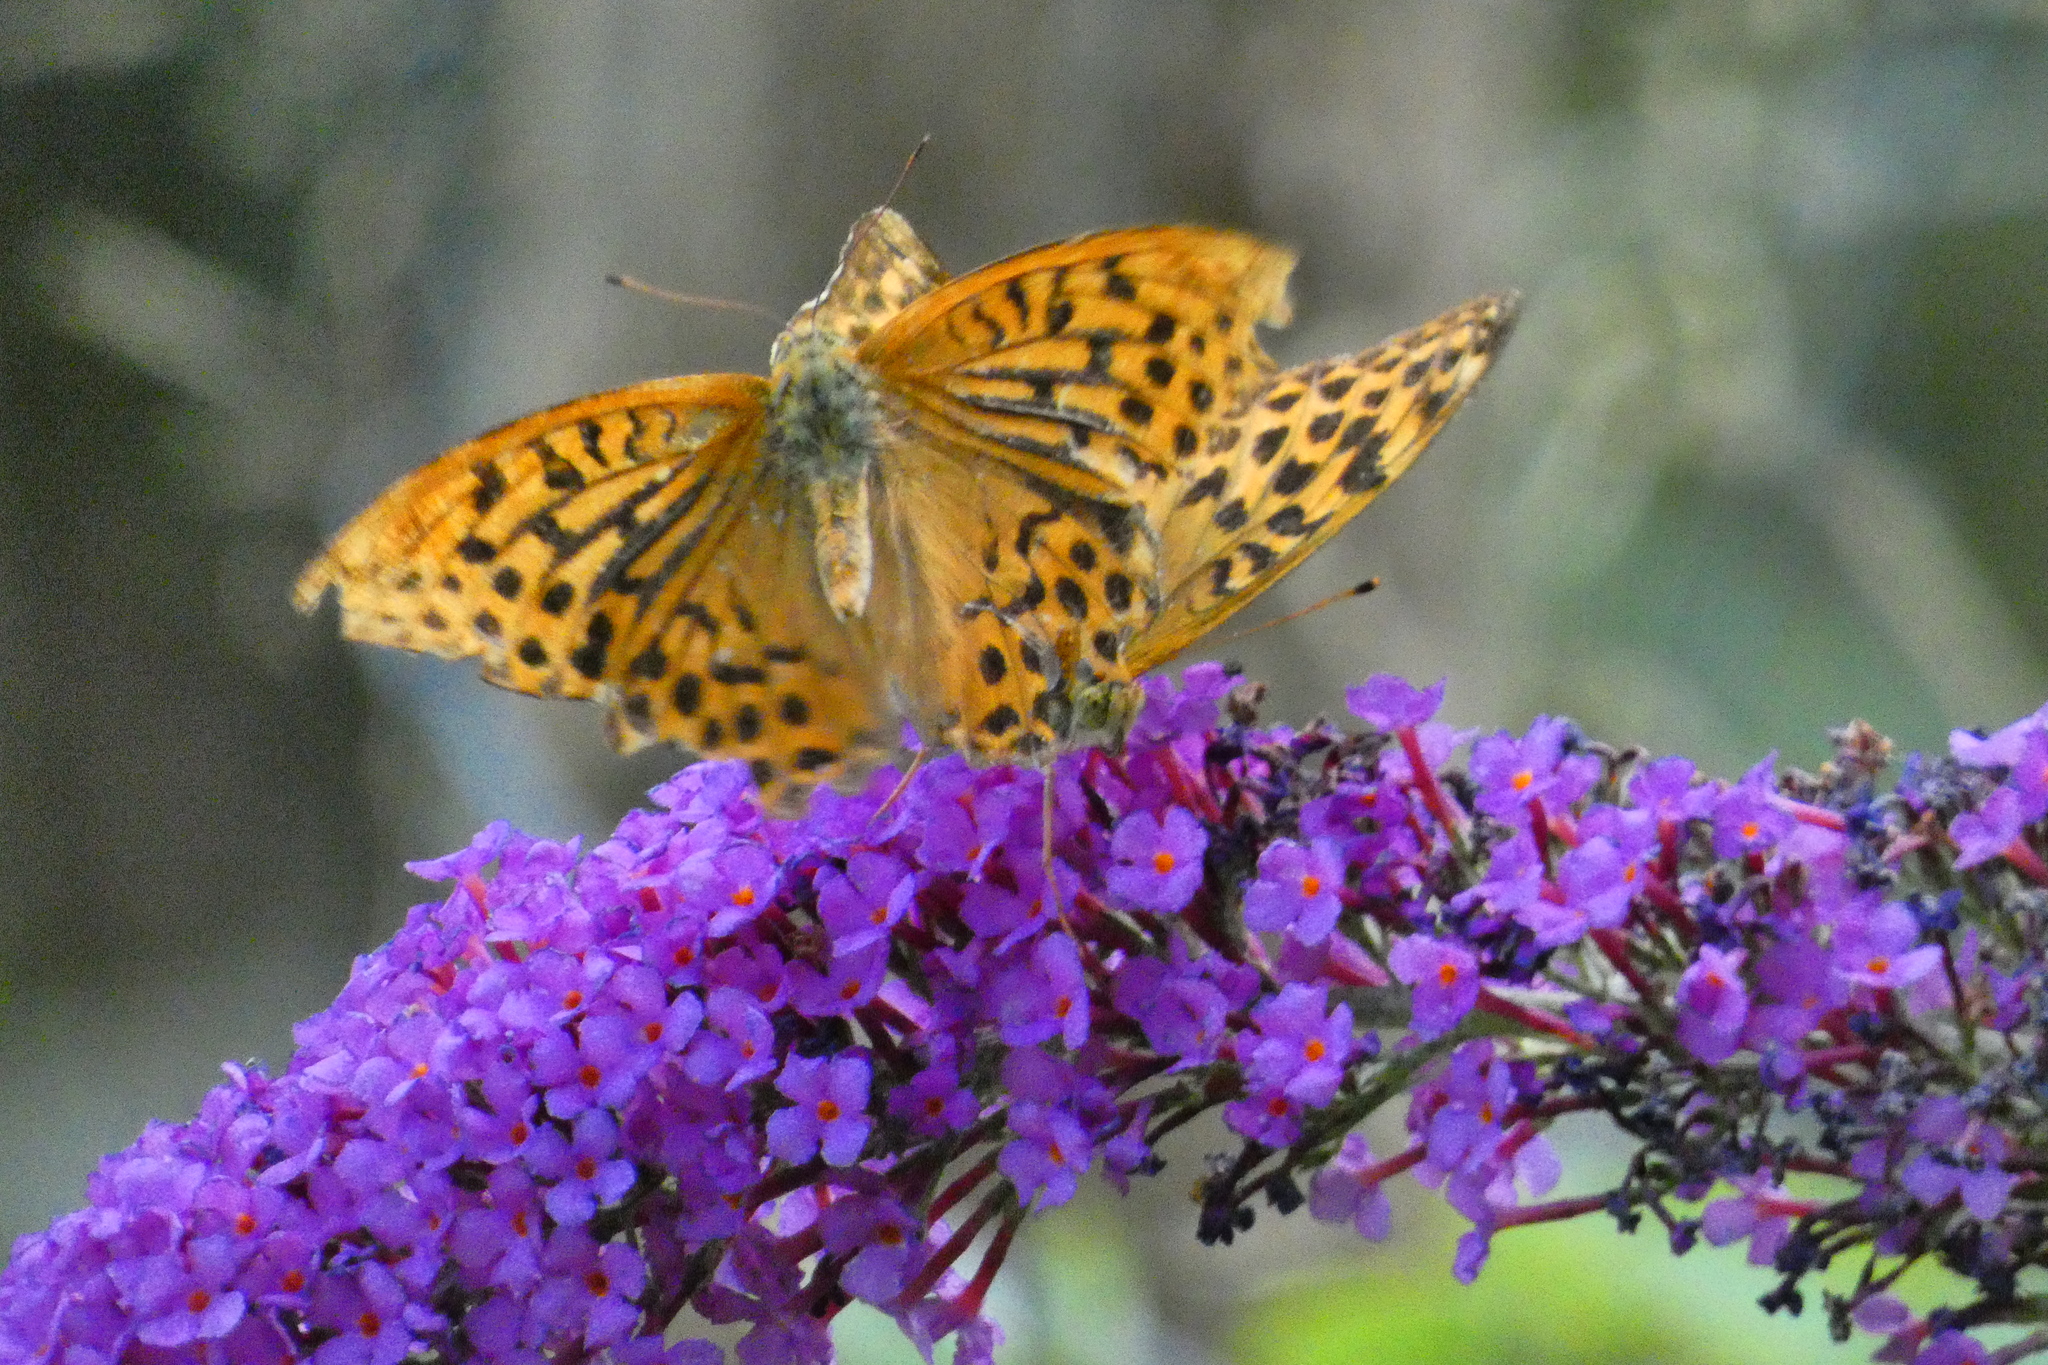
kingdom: Animalia
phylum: Arthropoda
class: Insecta
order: Lepidoptera
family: Nymphalidae
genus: Argynnis
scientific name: Argynnis paphia
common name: Silver-washed fritillary
